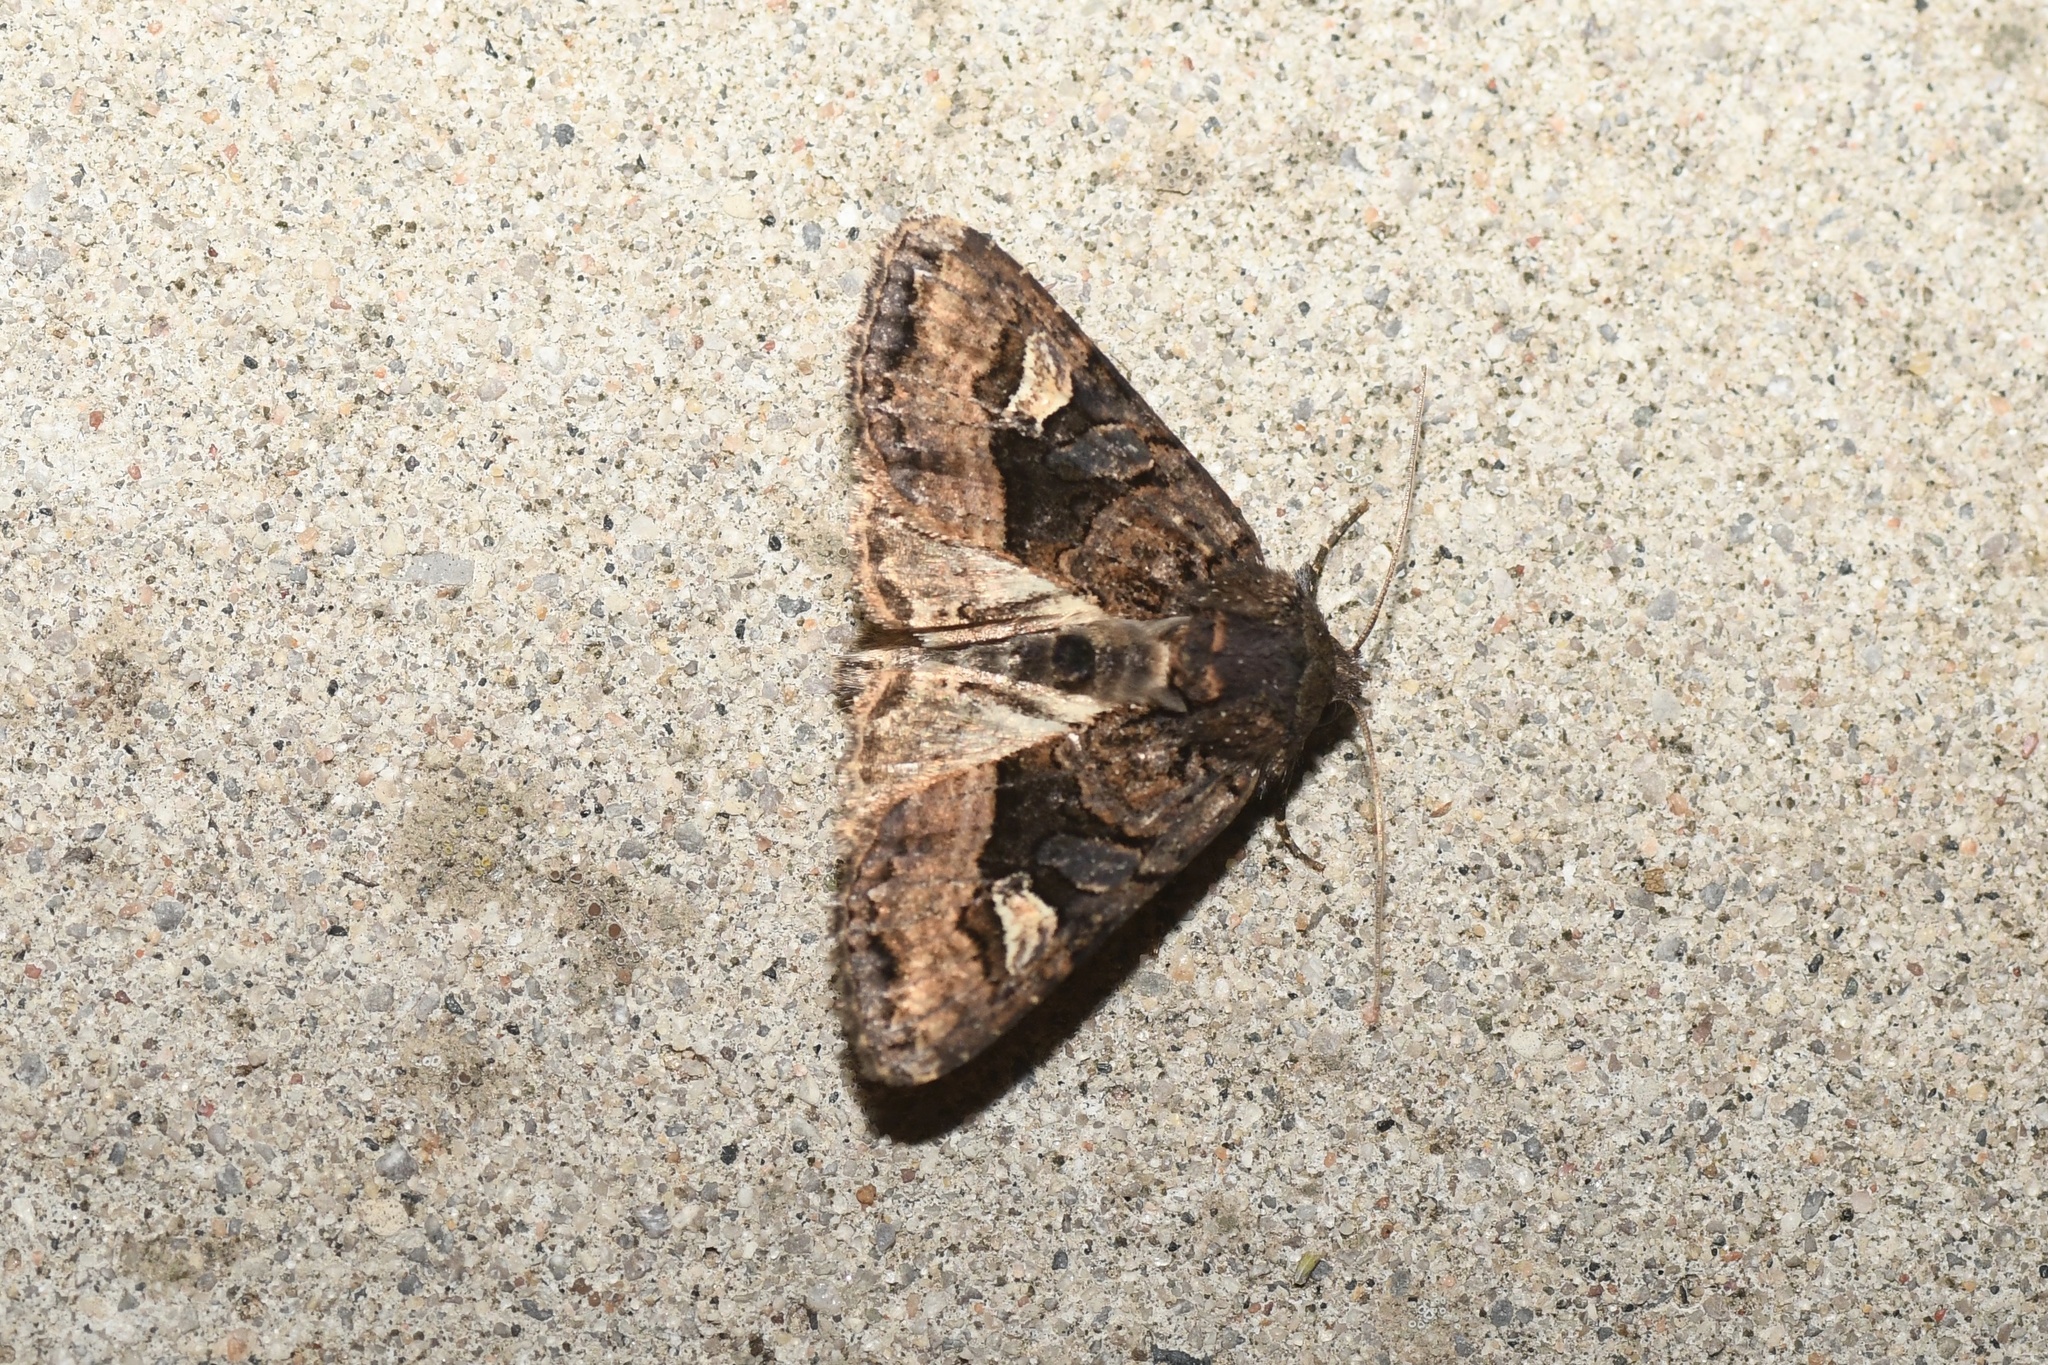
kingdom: Animalia
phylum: Arthropoda
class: Insecta
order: Lepidoptera
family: Noctuidae
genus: Euplexia
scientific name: Euplexia benesimilis
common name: American angle shades
